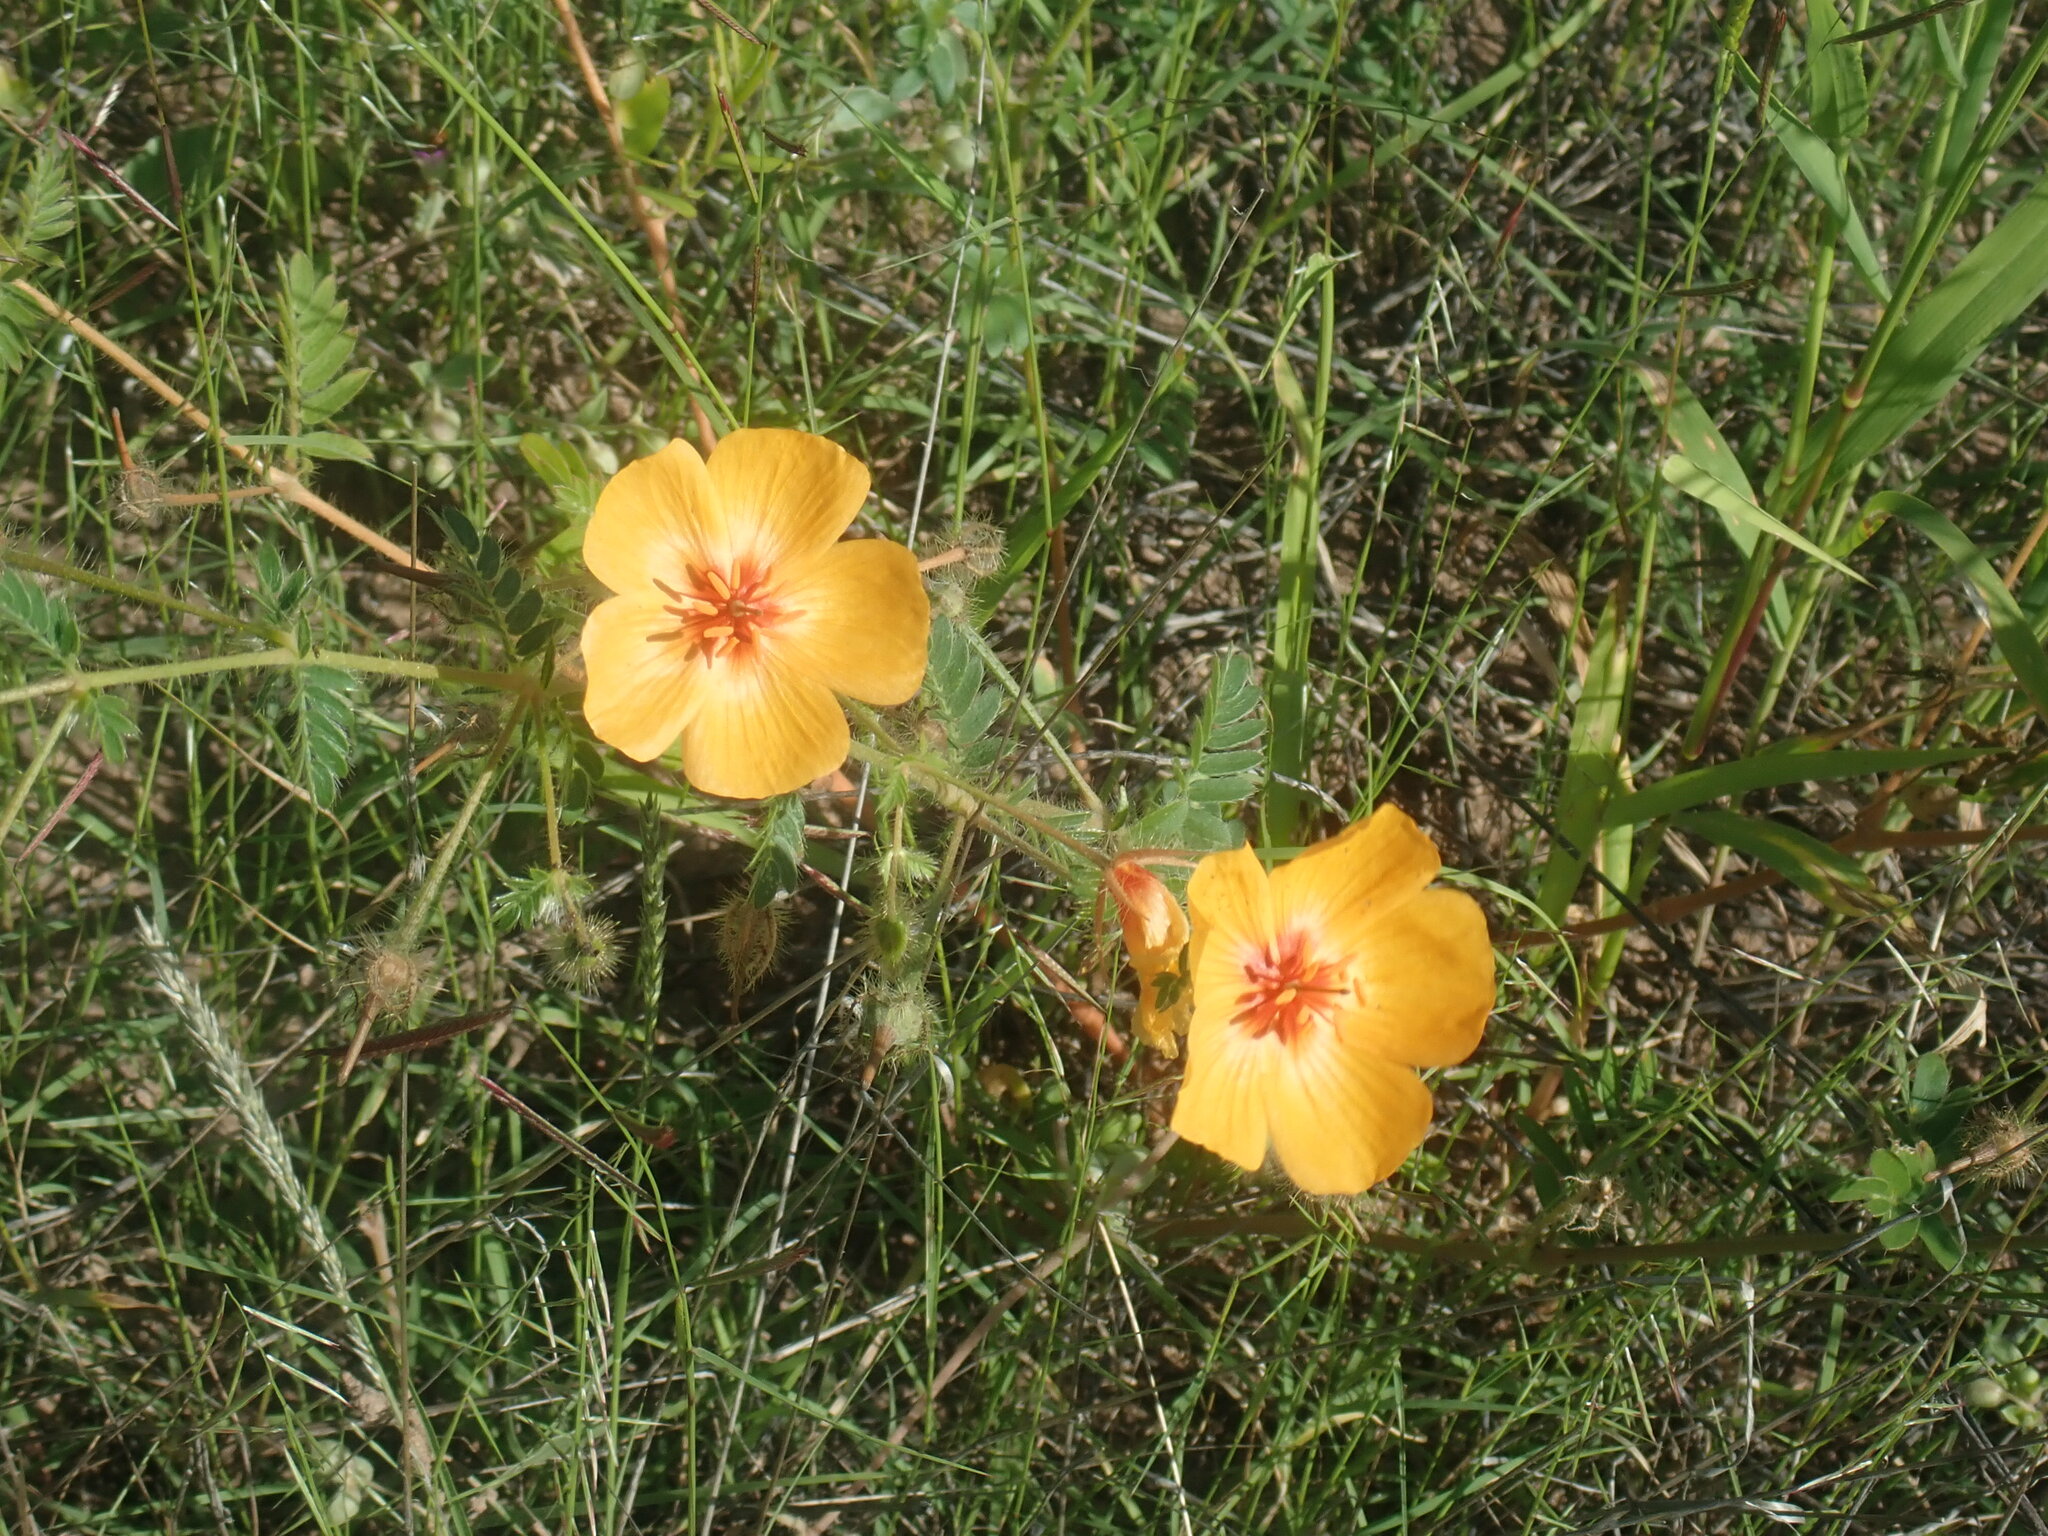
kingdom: Plantae
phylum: Tracheophyta
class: Magnoliopsida
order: Zygophyllales
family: Zygophyllaceae
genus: Kallstroemia
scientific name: Kallstroemia grandiflora
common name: Arizona-poppy
